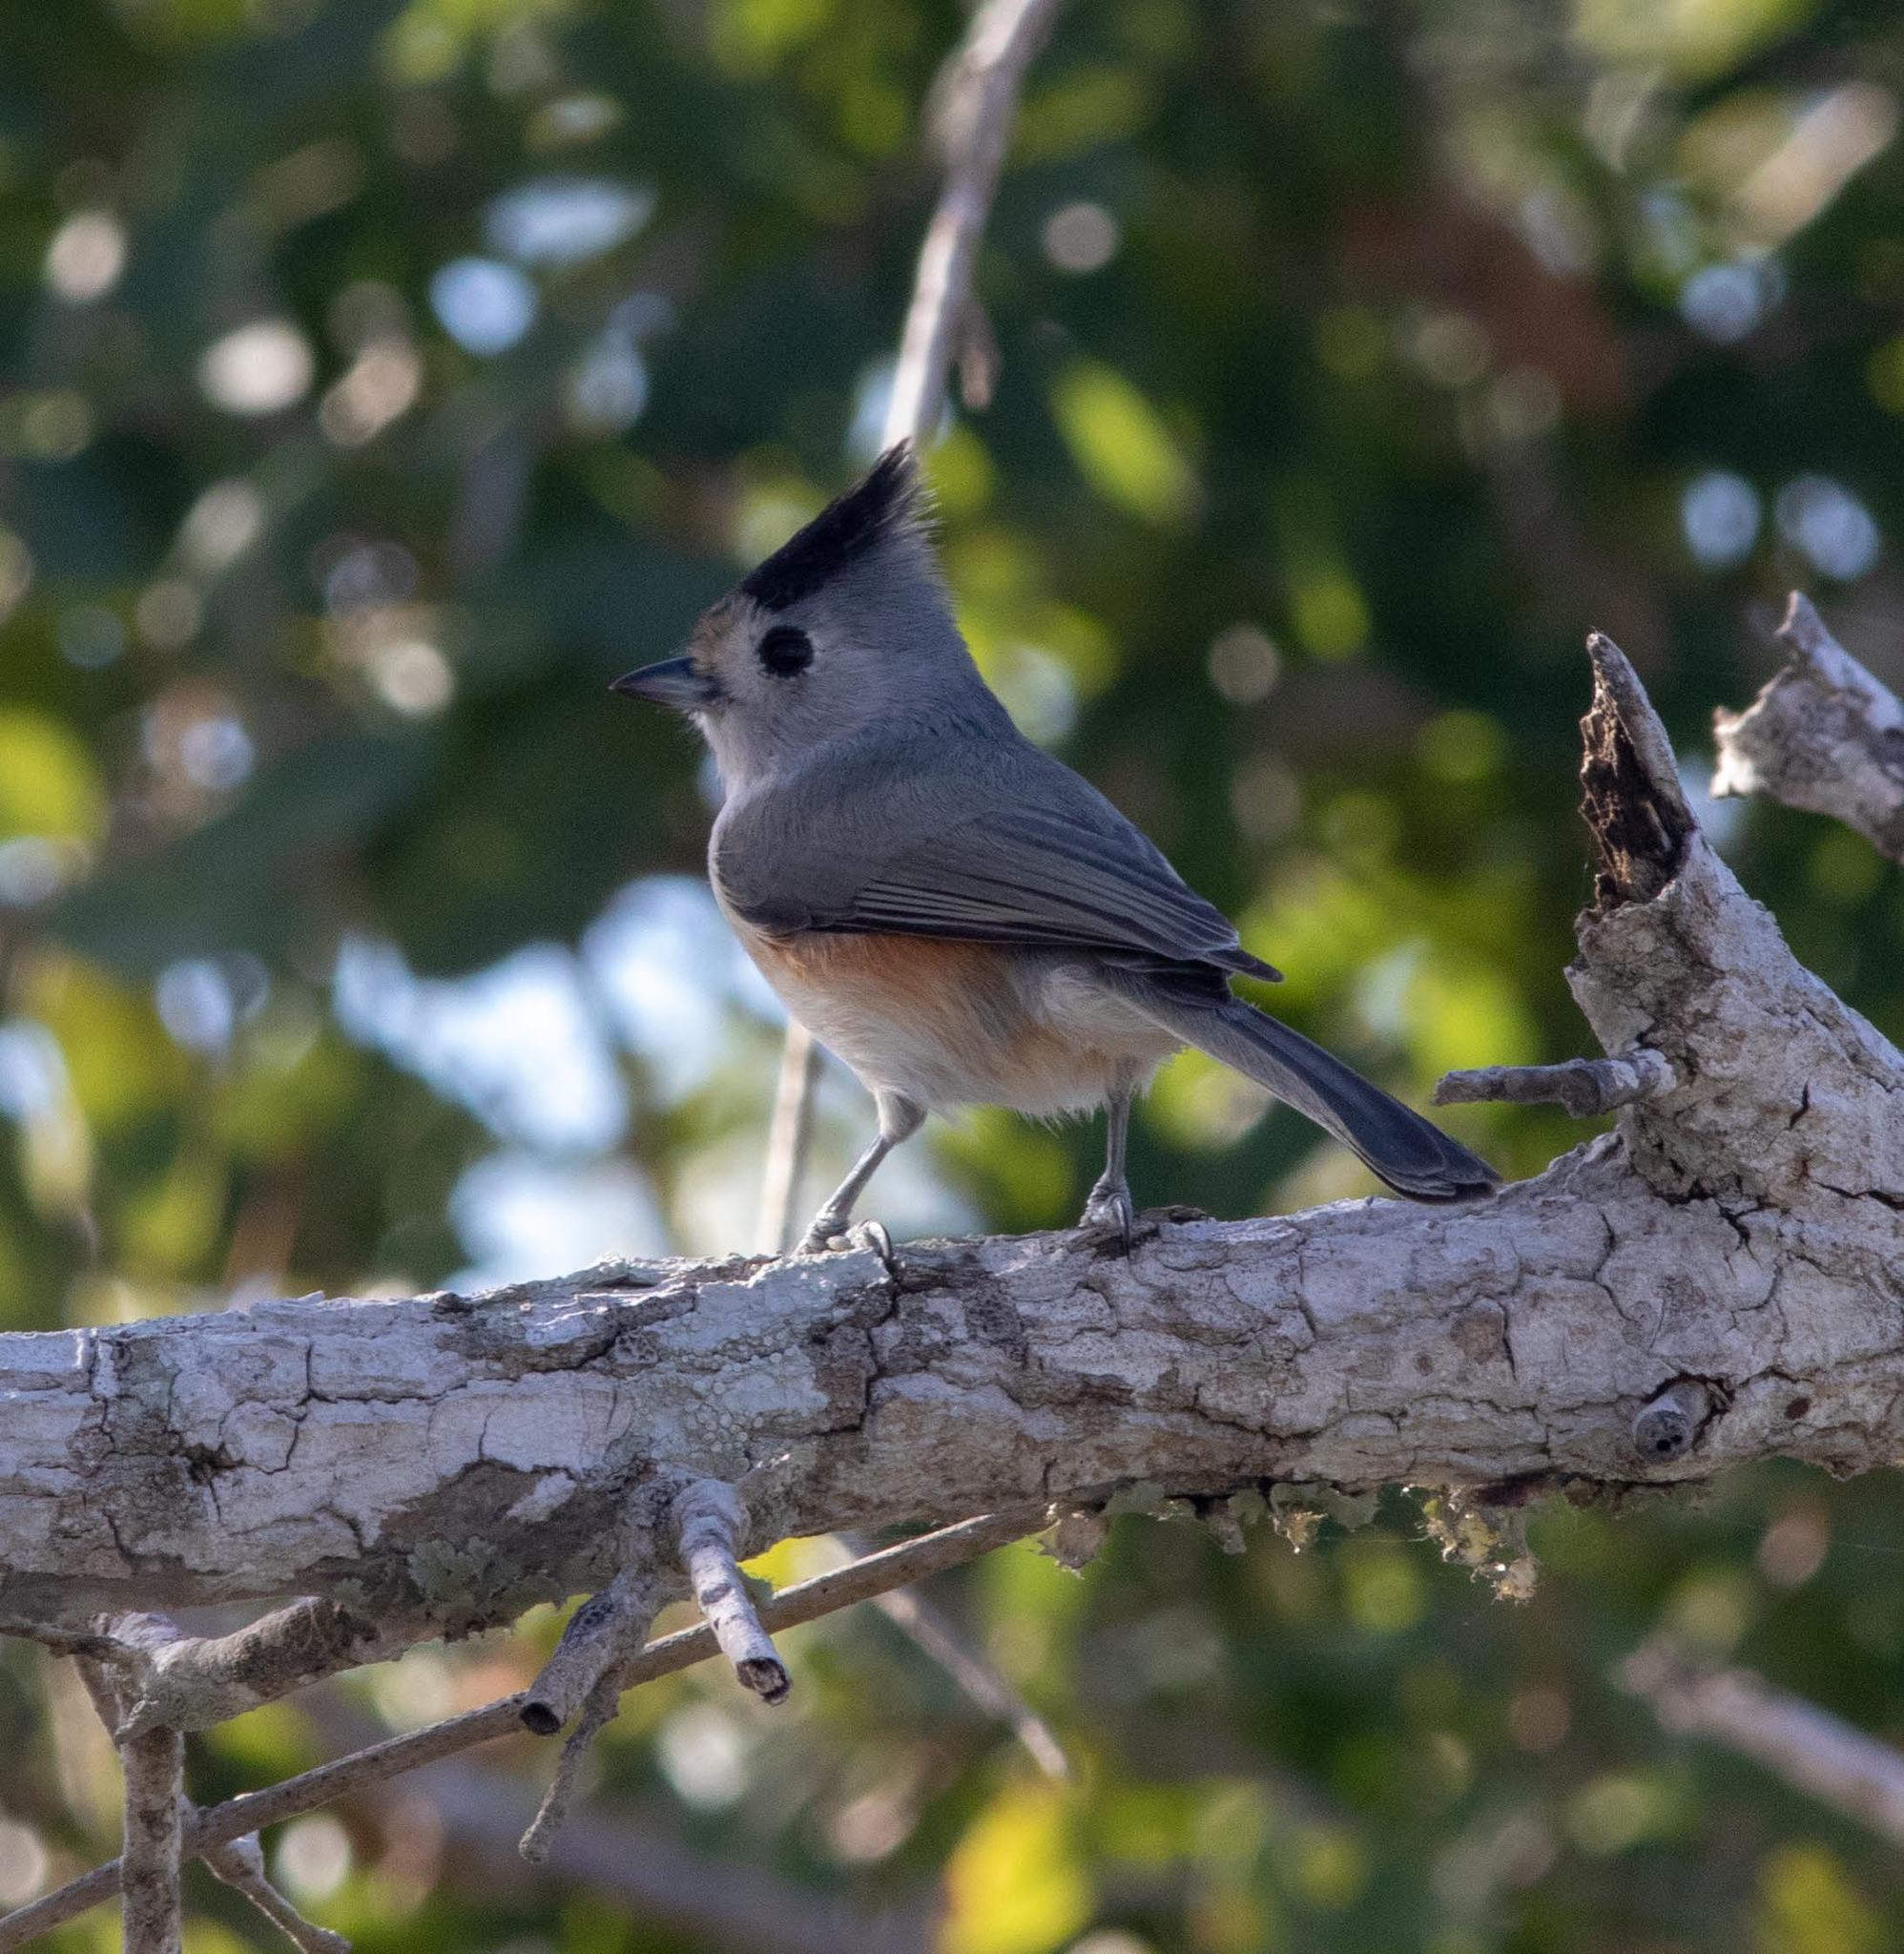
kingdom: Animalia
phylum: Chordata
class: Aves
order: Passeriformes
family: Paridae
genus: Baeolophus
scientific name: Baeolophus atricristatus
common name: Black-crested titmouse
